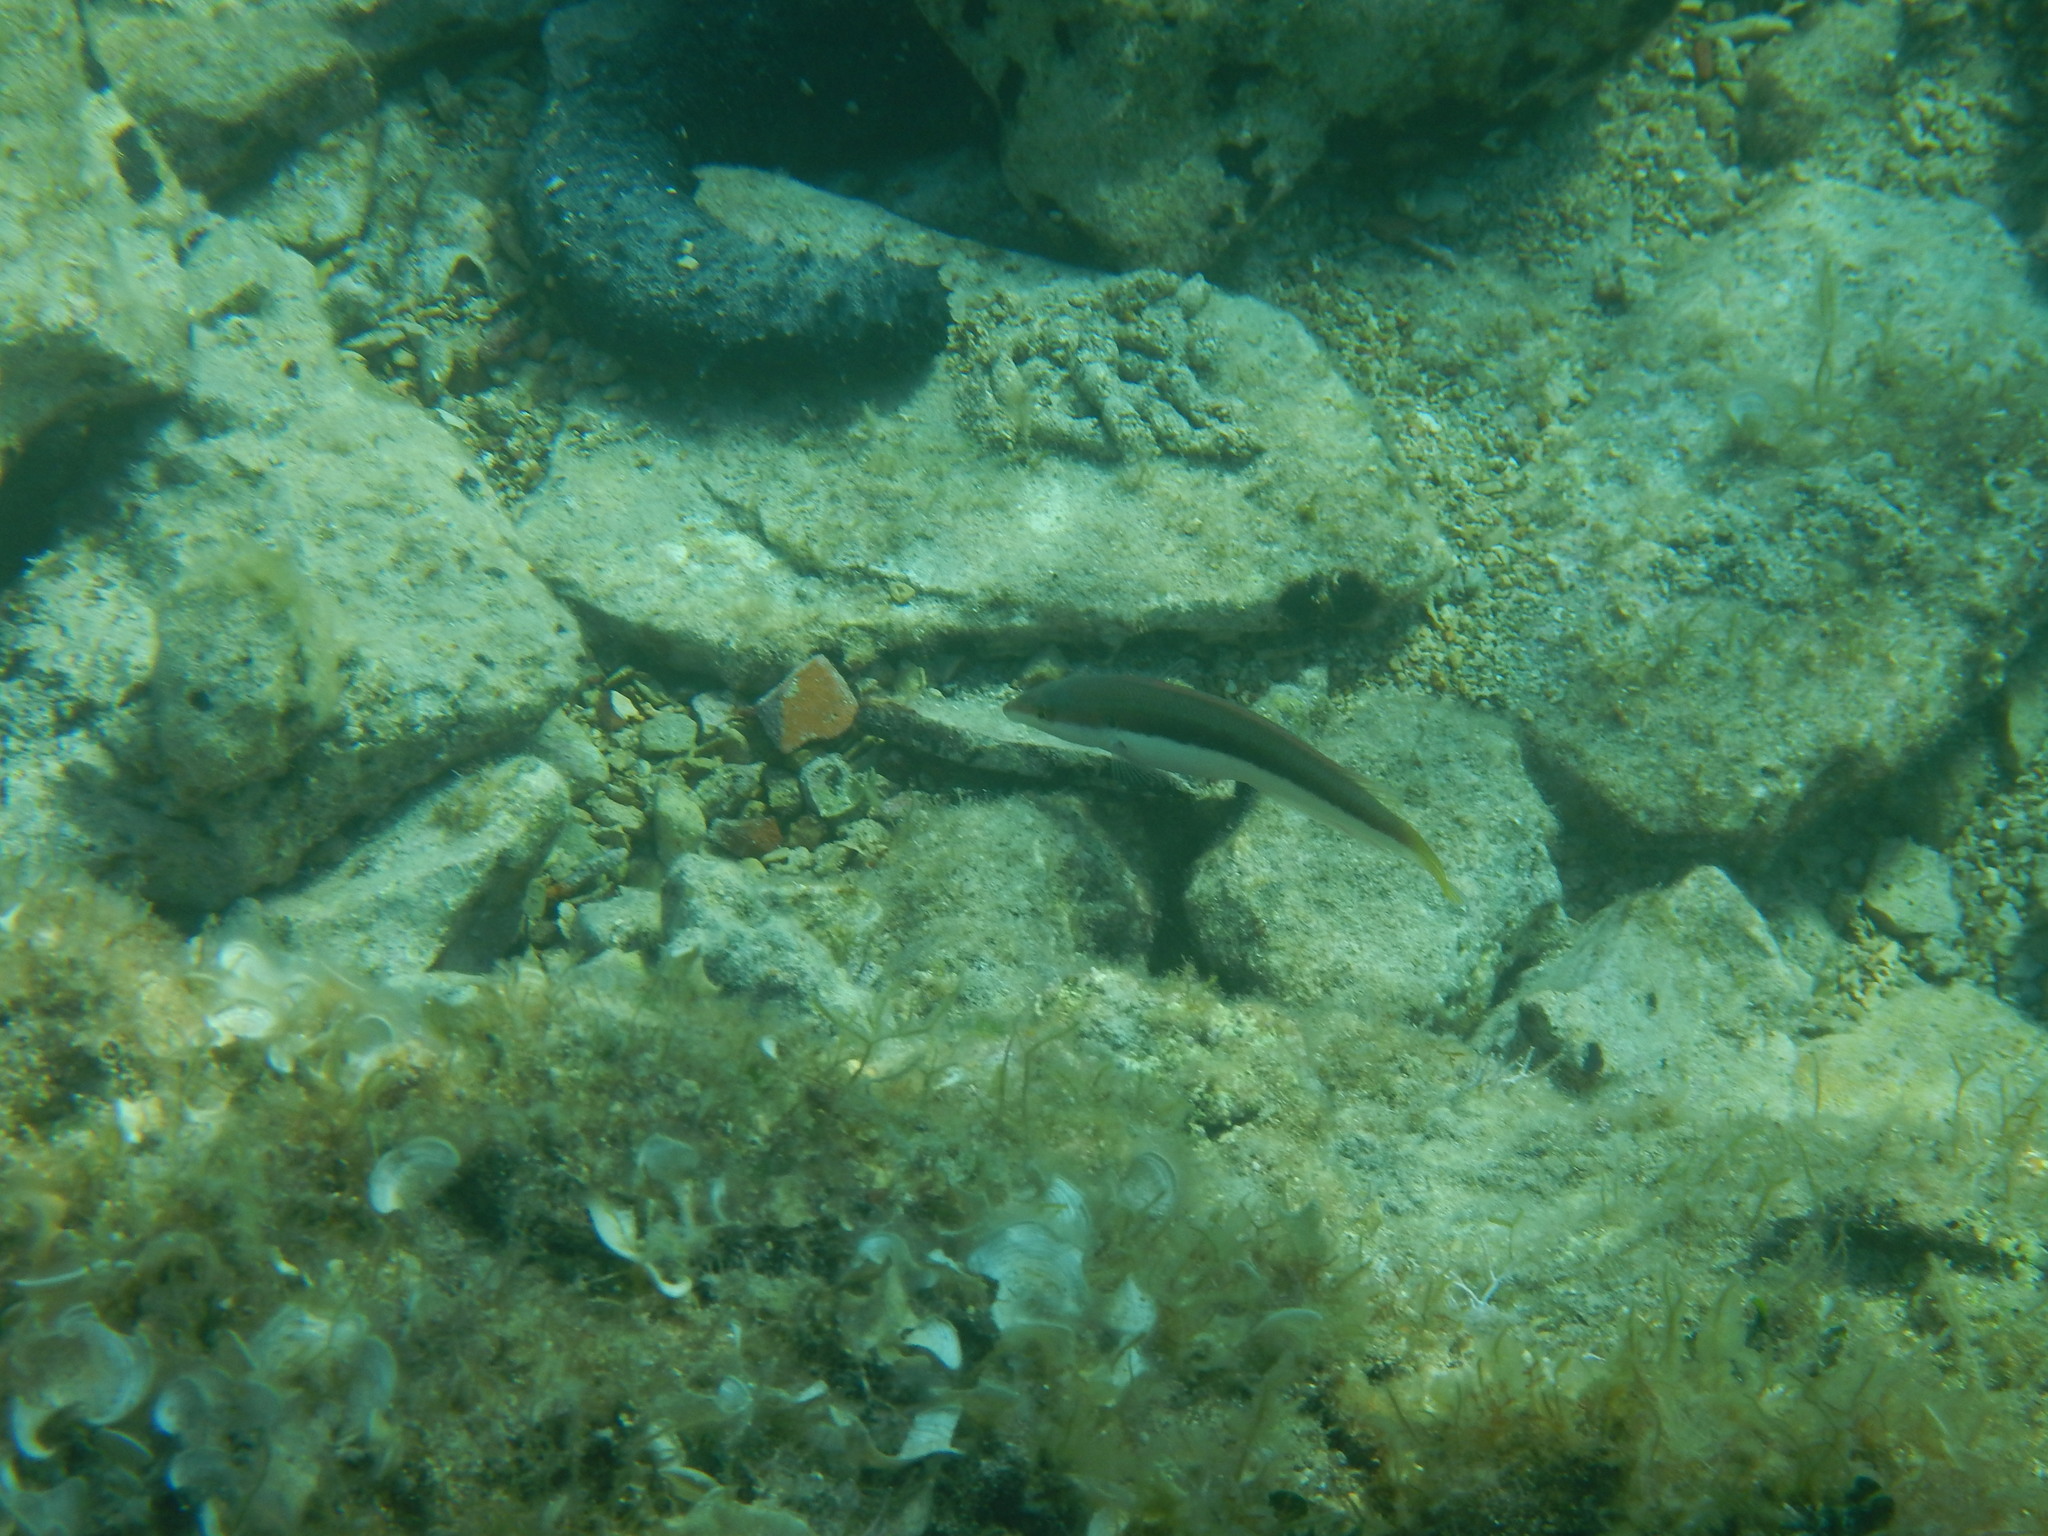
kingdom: Animalia
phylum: Chordata
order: Perciformes
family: Labridae
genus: Coris
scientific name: Coris julis
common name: Rainbow wrasse
